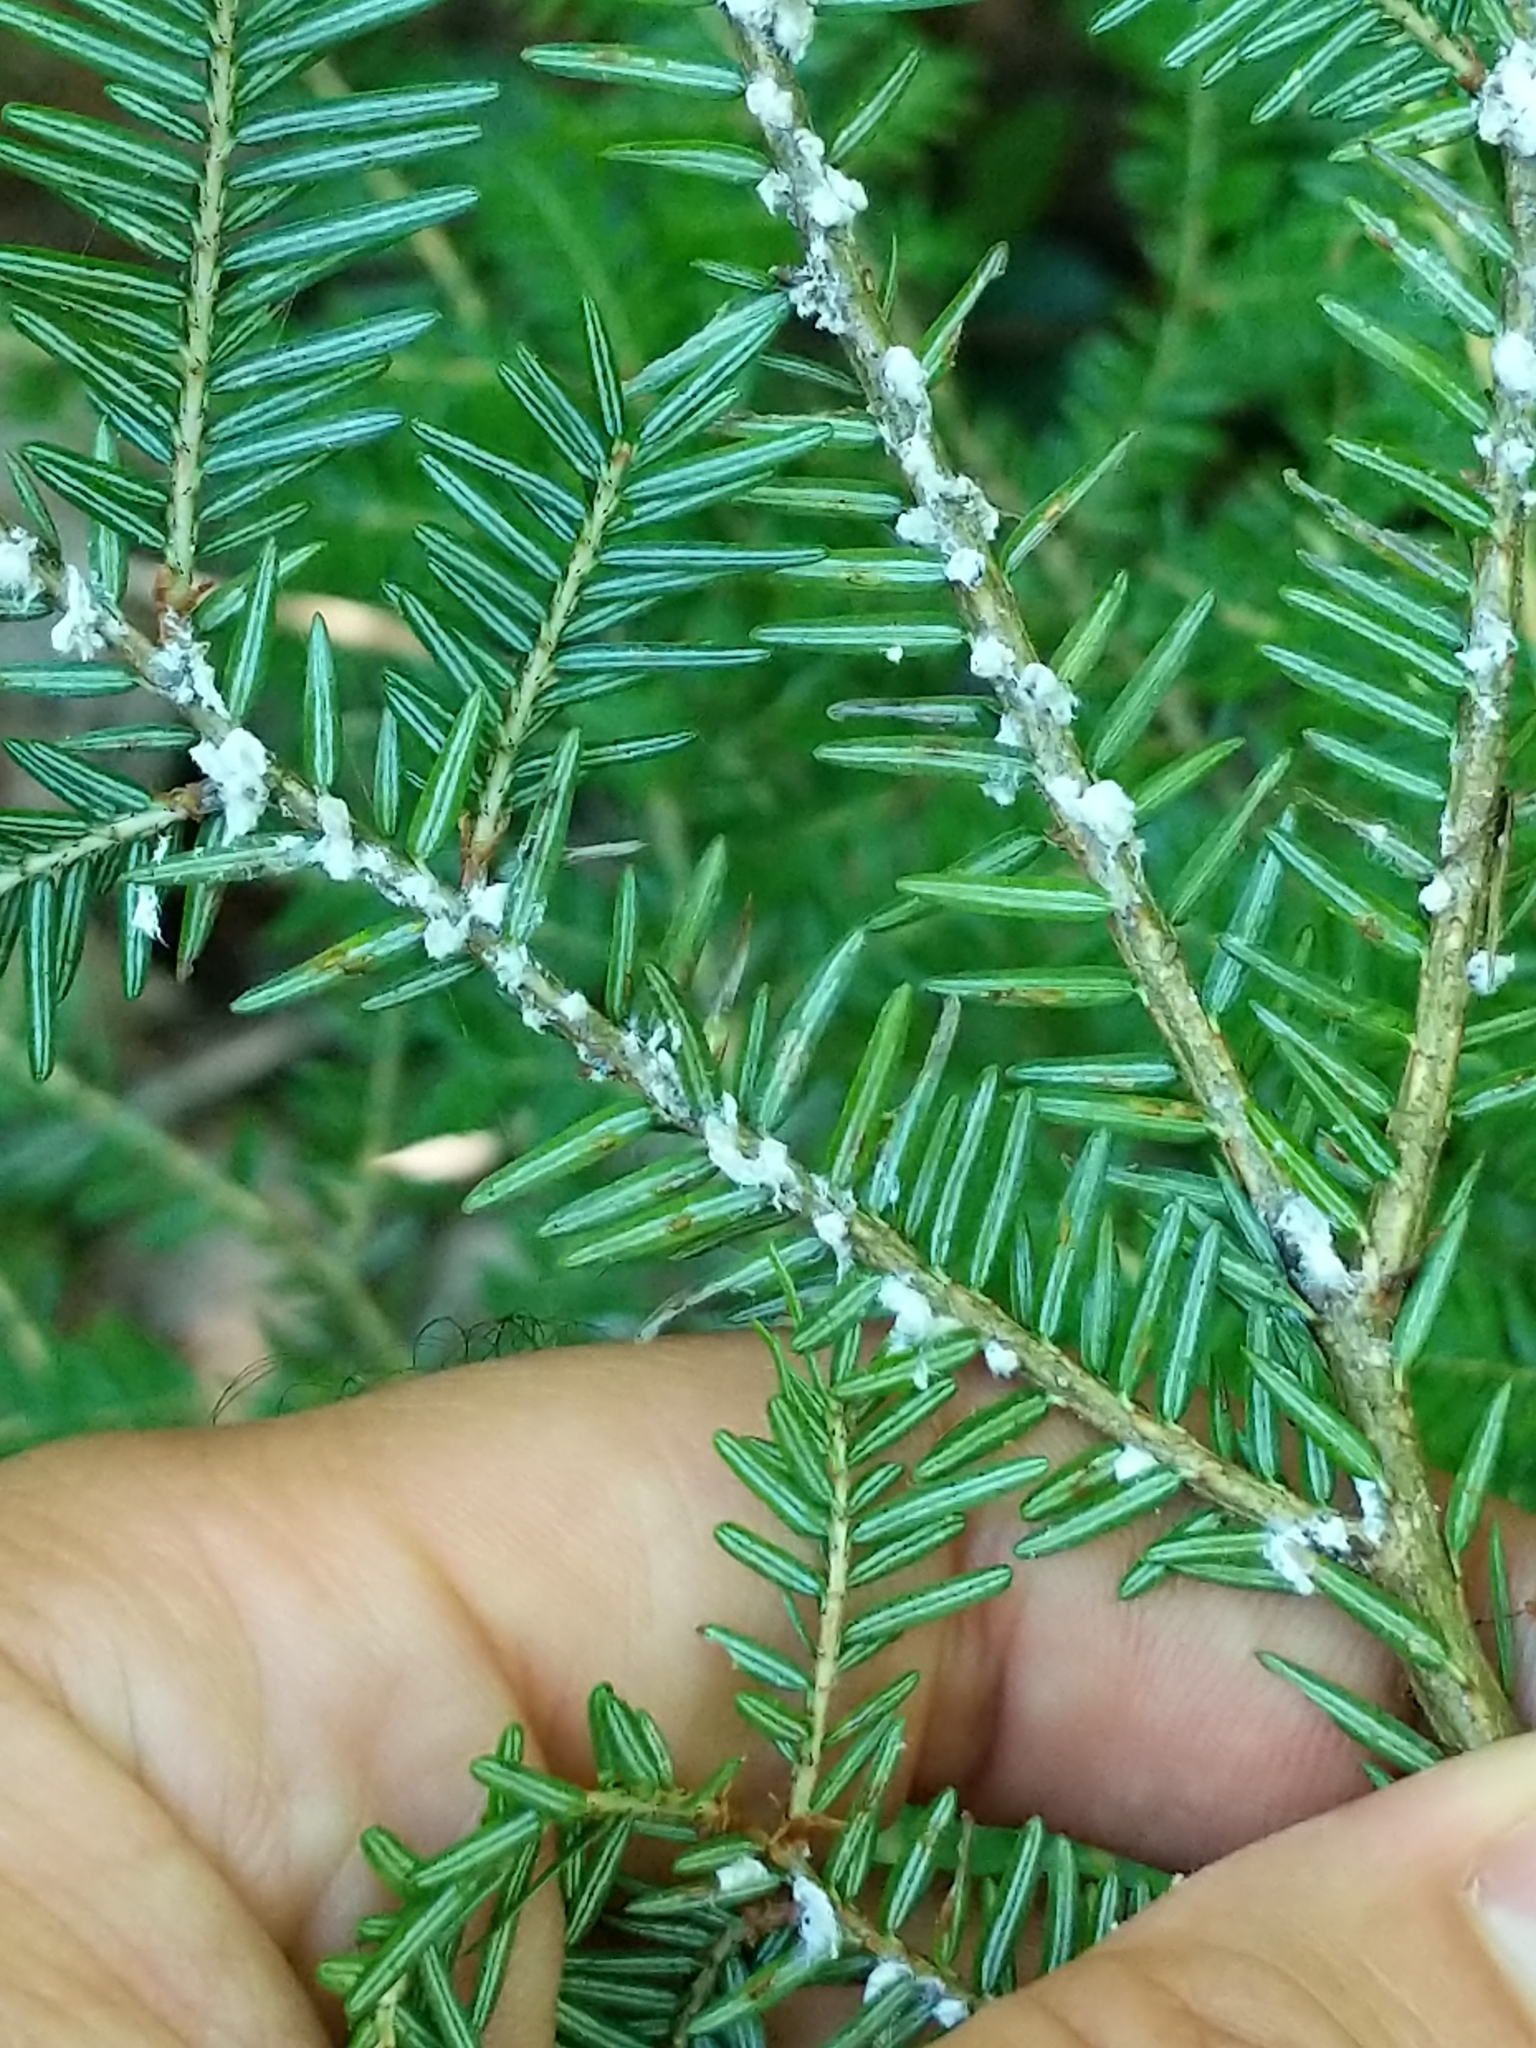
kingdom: Animalia
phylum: Arthropoda
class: Insecta
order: Hemiptera
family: Adelgidae
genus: Adelges
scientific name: Adelges tsugae
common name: Hemlock woolly adelgid
